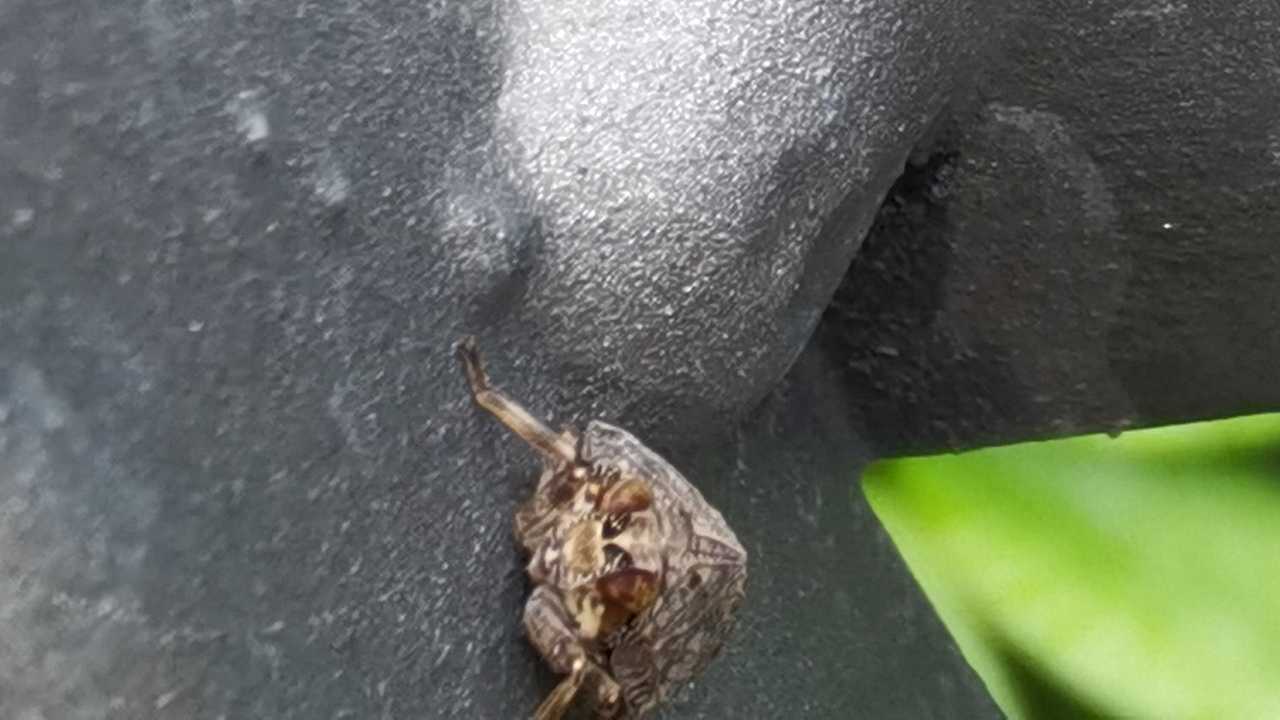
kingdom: Animalia
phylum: Arthropoda
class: Insecta
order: Hemiptera
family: Issidae
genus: Issus
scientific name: Issus coleoptratus
